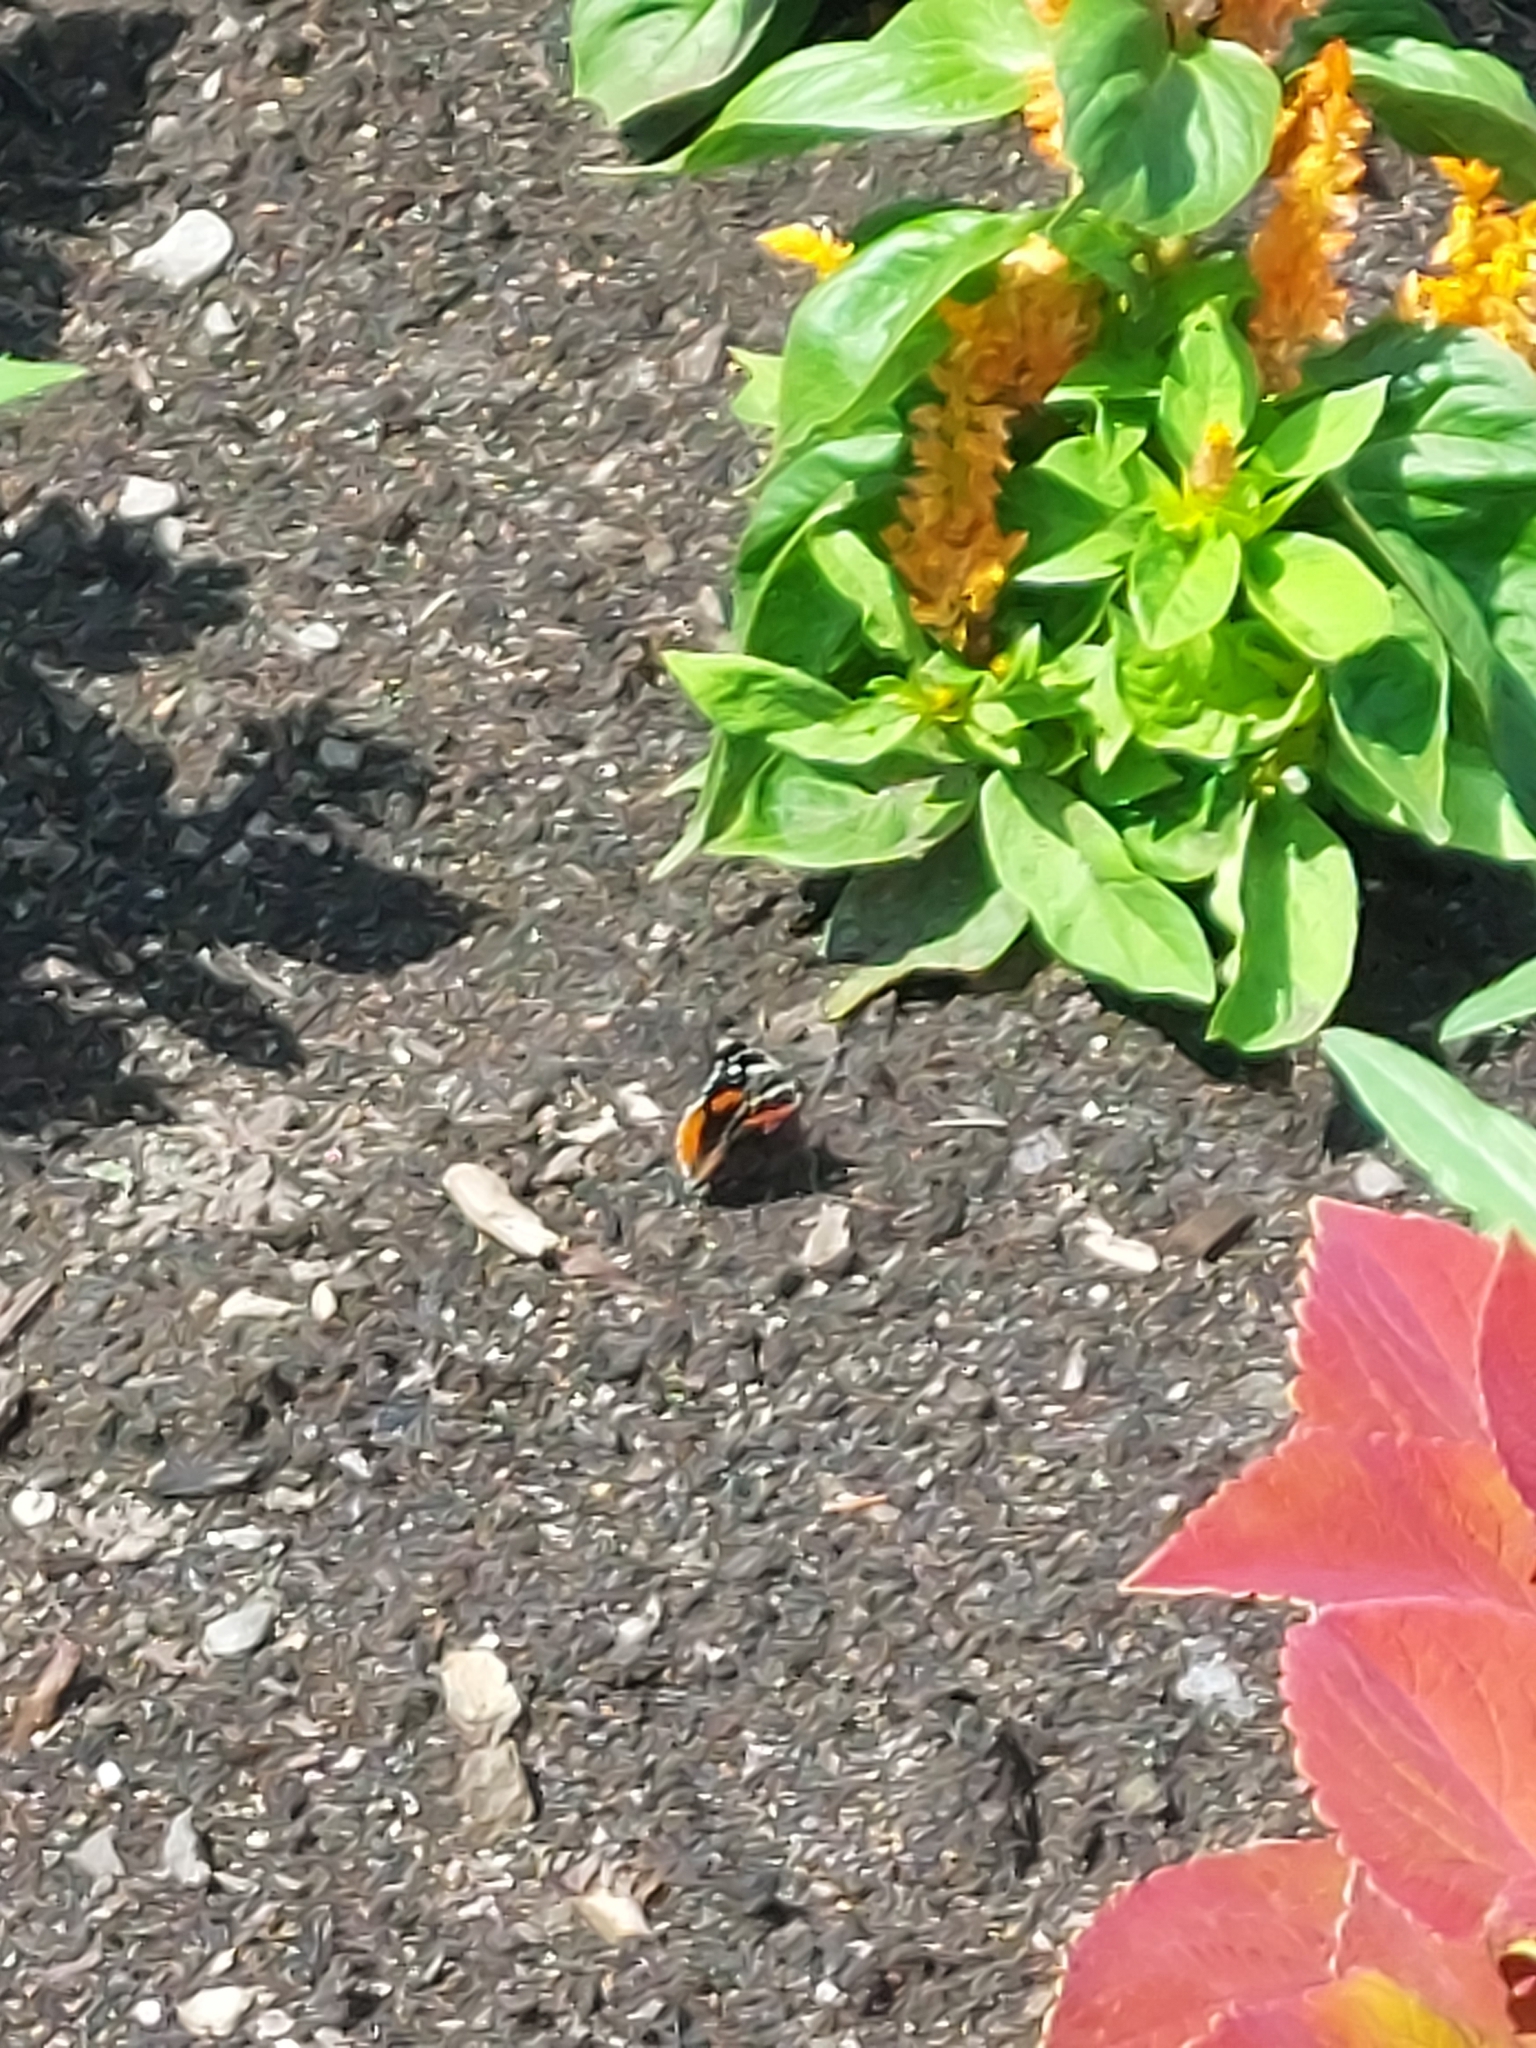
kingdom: Animalia
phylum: Arthropoda
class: Insecta
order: Lepidoptera
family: Nymphalidae
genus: Vanessa
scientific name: Vanessa atalanta
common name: Red admiral
